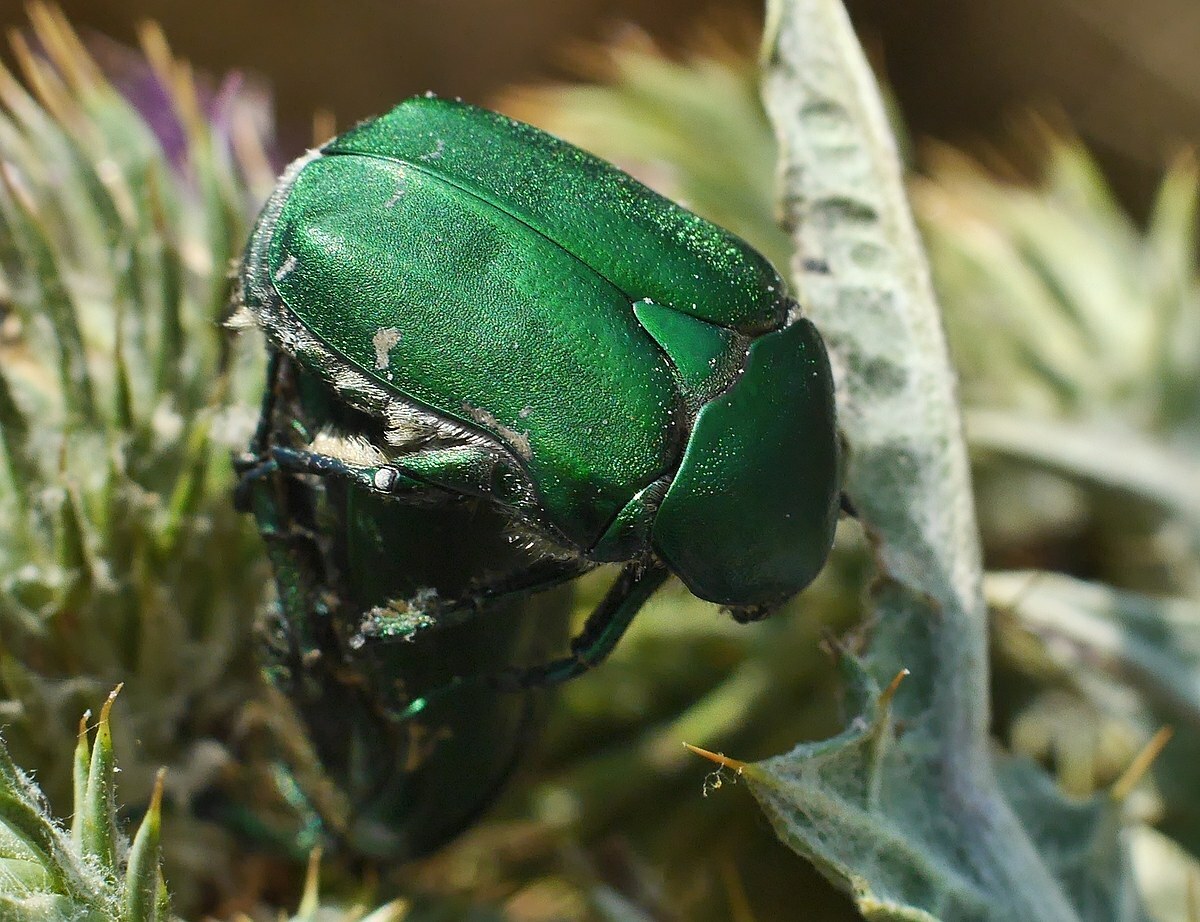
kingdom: Animalia
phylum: Arthropoda
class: Insecta
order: Coleoptera
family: Scarabaeidae
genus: Protaetia
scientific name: Protaetia ungarica
